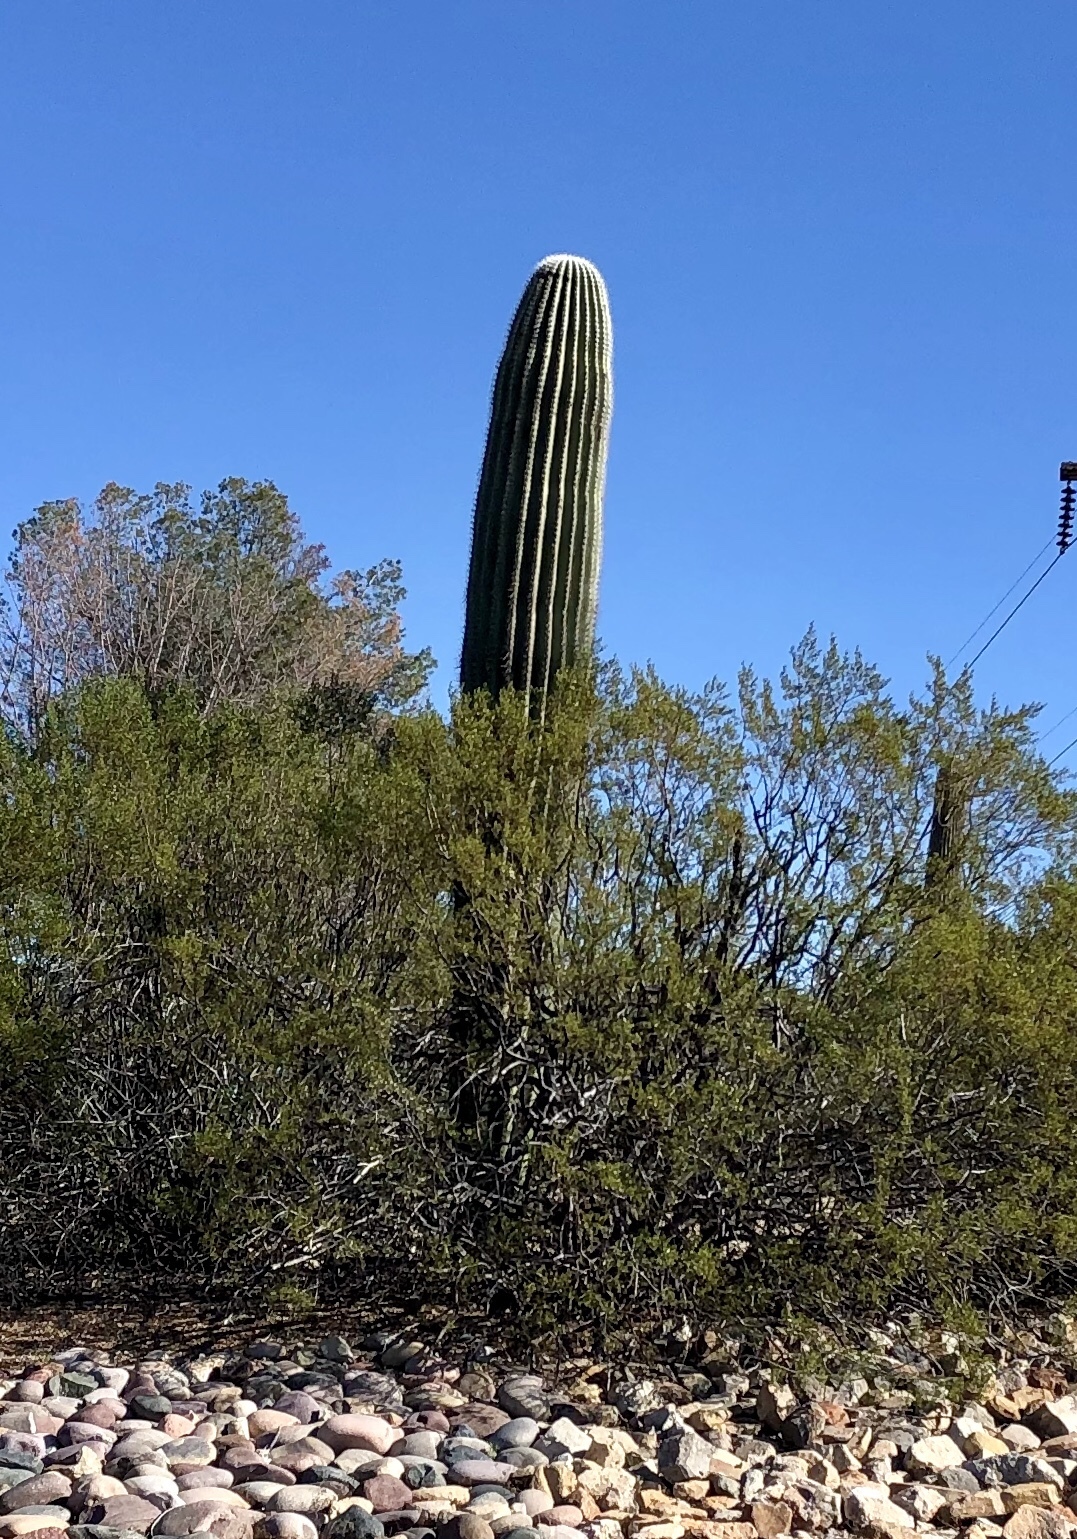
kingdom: Plantae
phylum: Tracheophyta
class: Magnoliopsida
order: Caryophyllales
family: Cactaceae
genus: Carnegiea
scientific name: Carnegiea gigantea
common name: Saguaro
